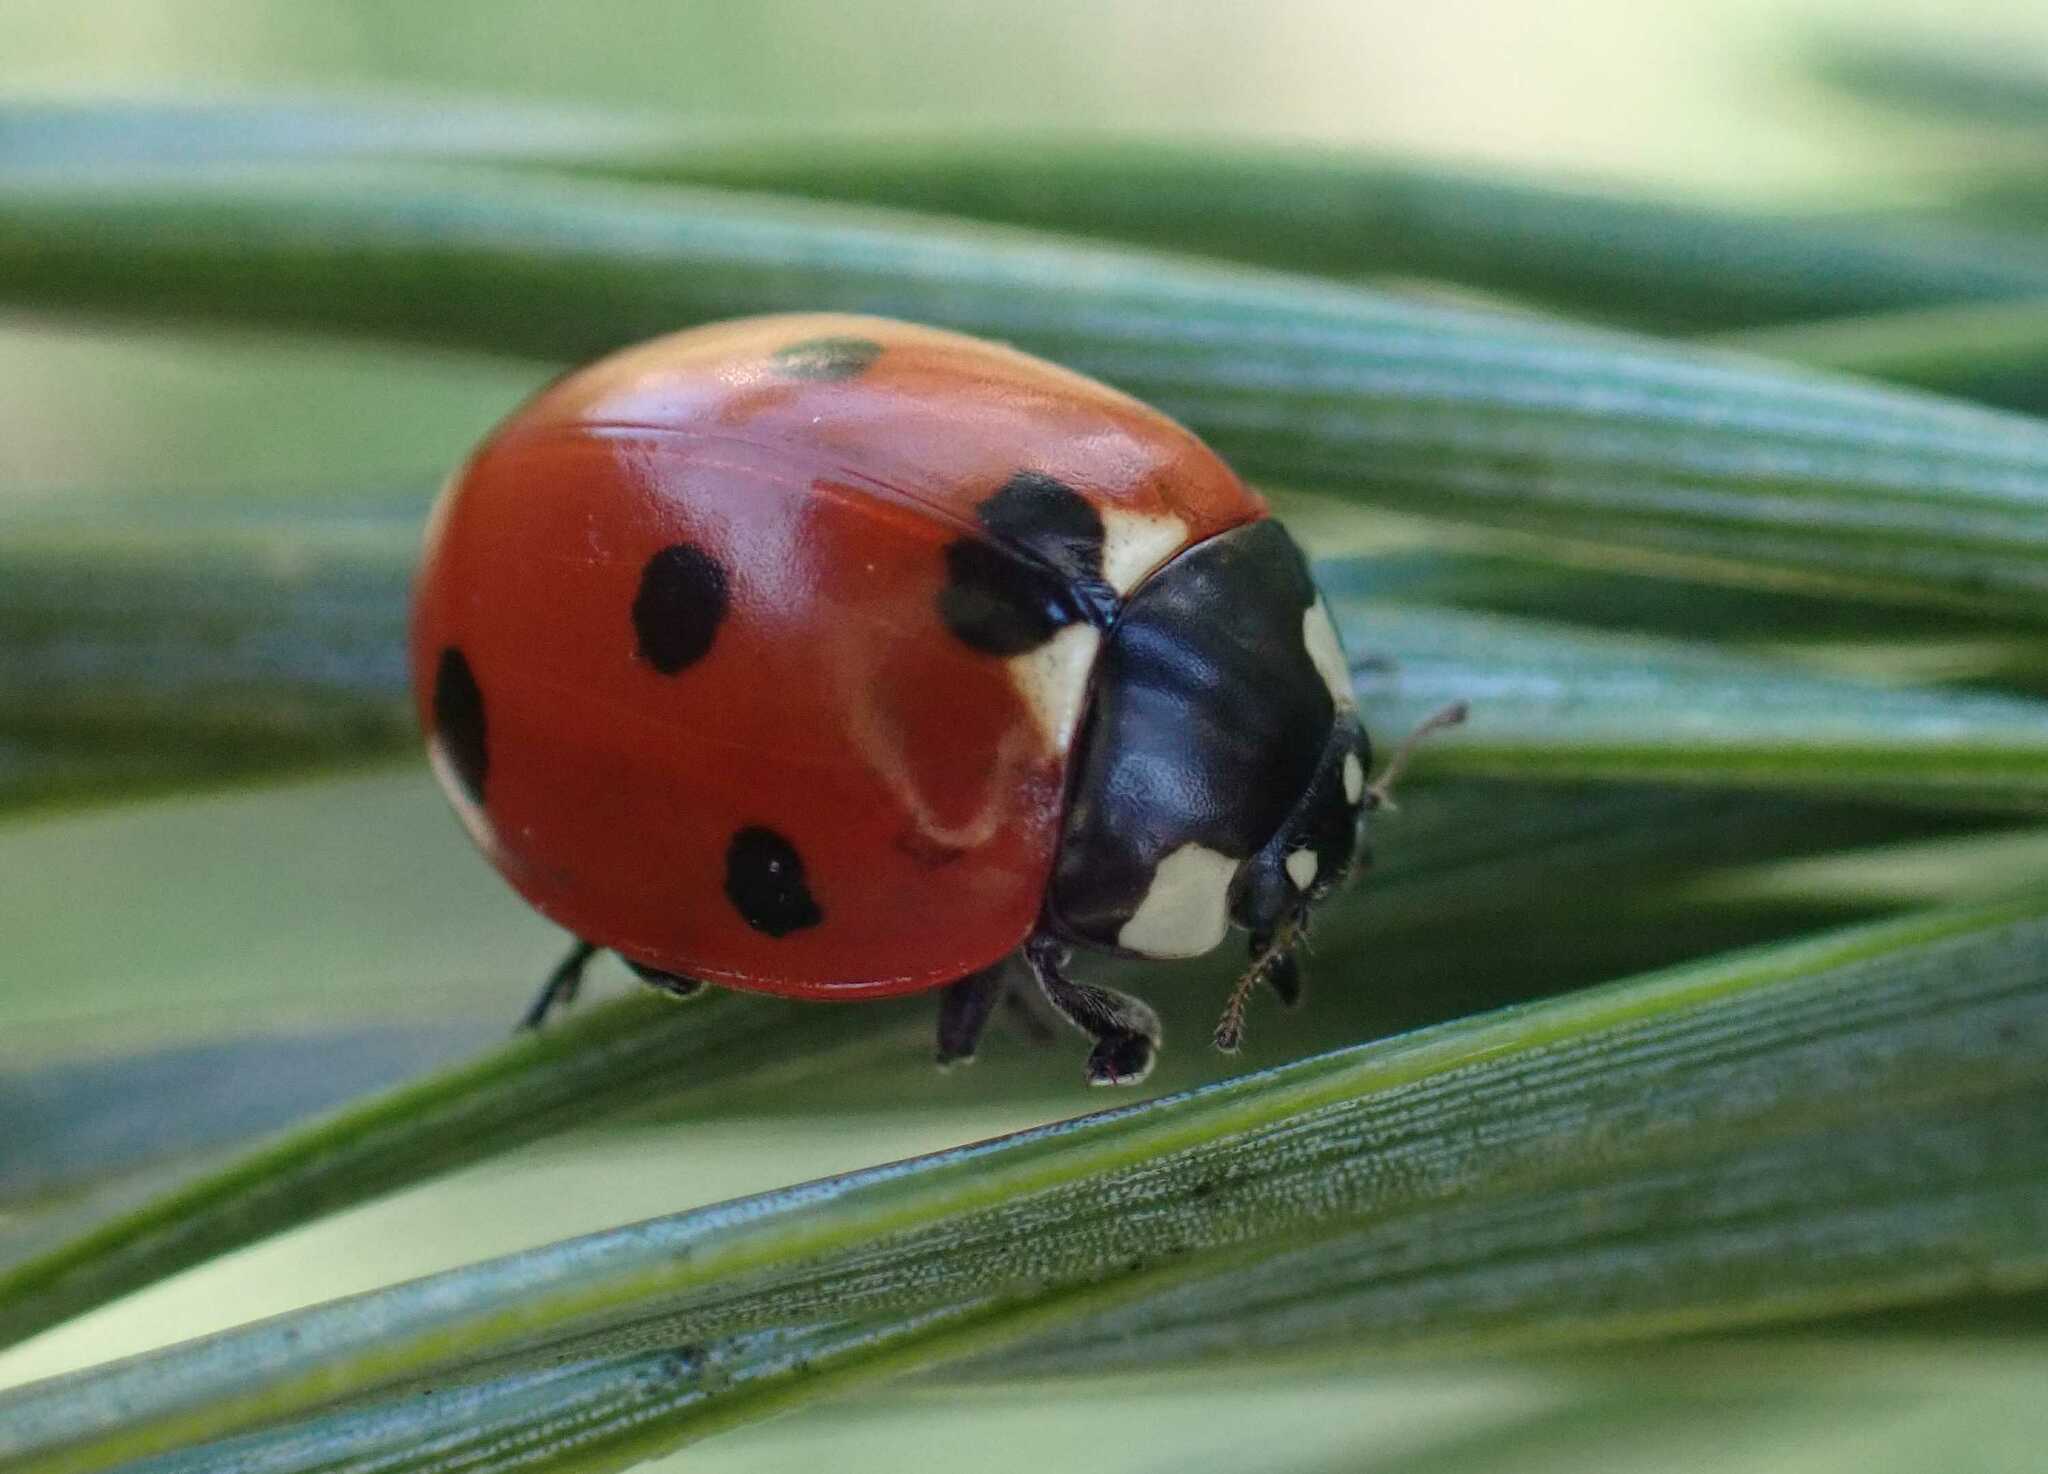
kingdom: Animalia
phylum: Arthropoda
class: Insecta
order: Coleoptera
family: Coccinellidae
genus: Coccinella
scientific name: Coccinella septempunctata
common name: Sevenspotted lady beetle
